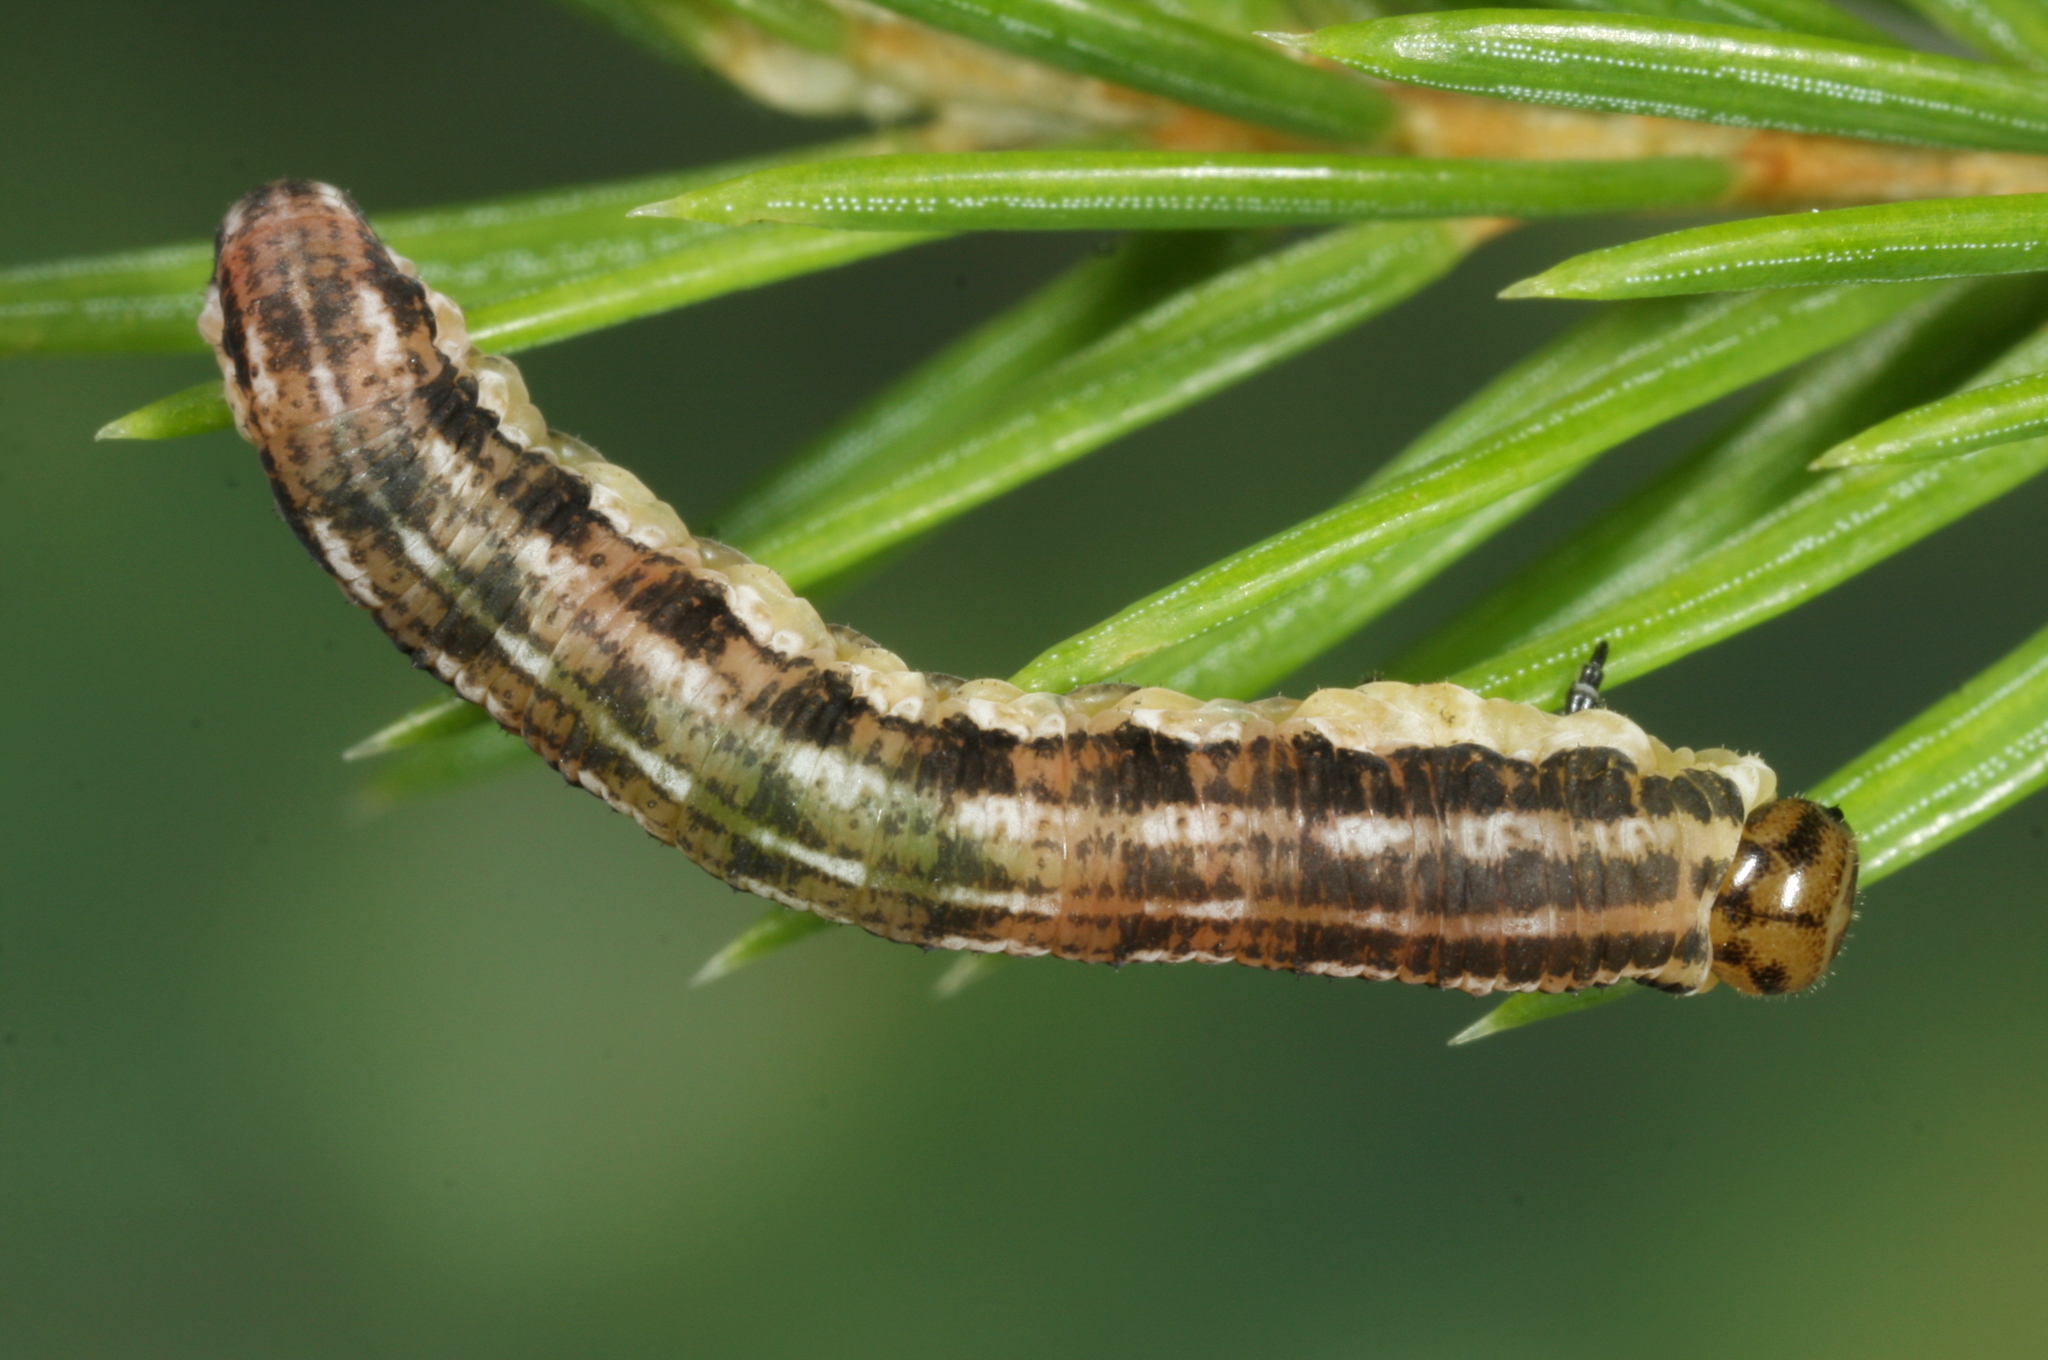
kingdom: Animalia
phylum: Arthropoda
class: Insecta
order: Hymenoptera
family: Diprionidae
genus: Gilpinia
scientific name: Gilpinia abieticola
